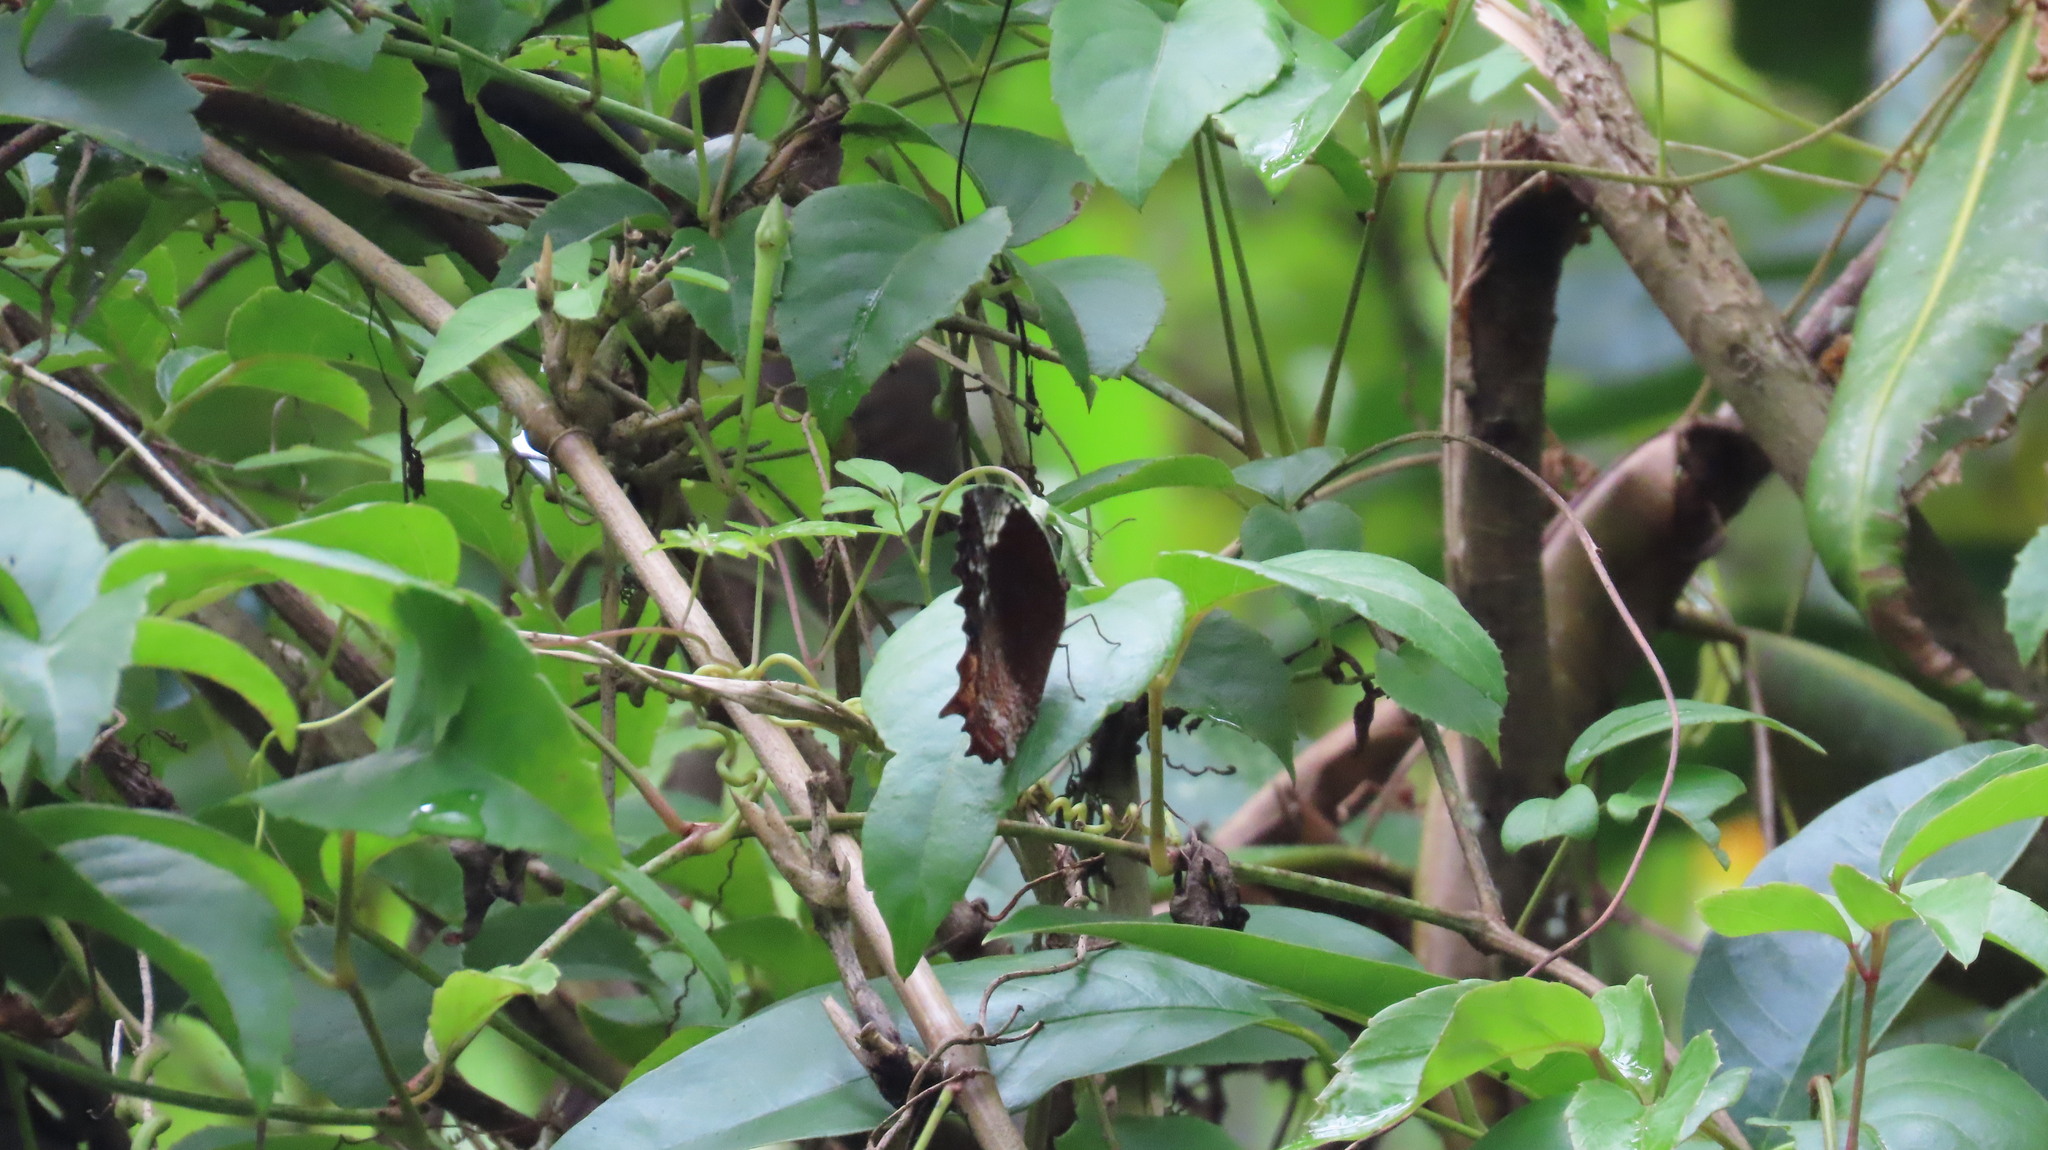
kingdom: Animalia
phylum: Arthropoda
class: Insecta
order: Lepidoptera
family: Nymphalidae
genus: Elymnias
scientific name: Elymnias caudata
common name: Tailed palmfly
